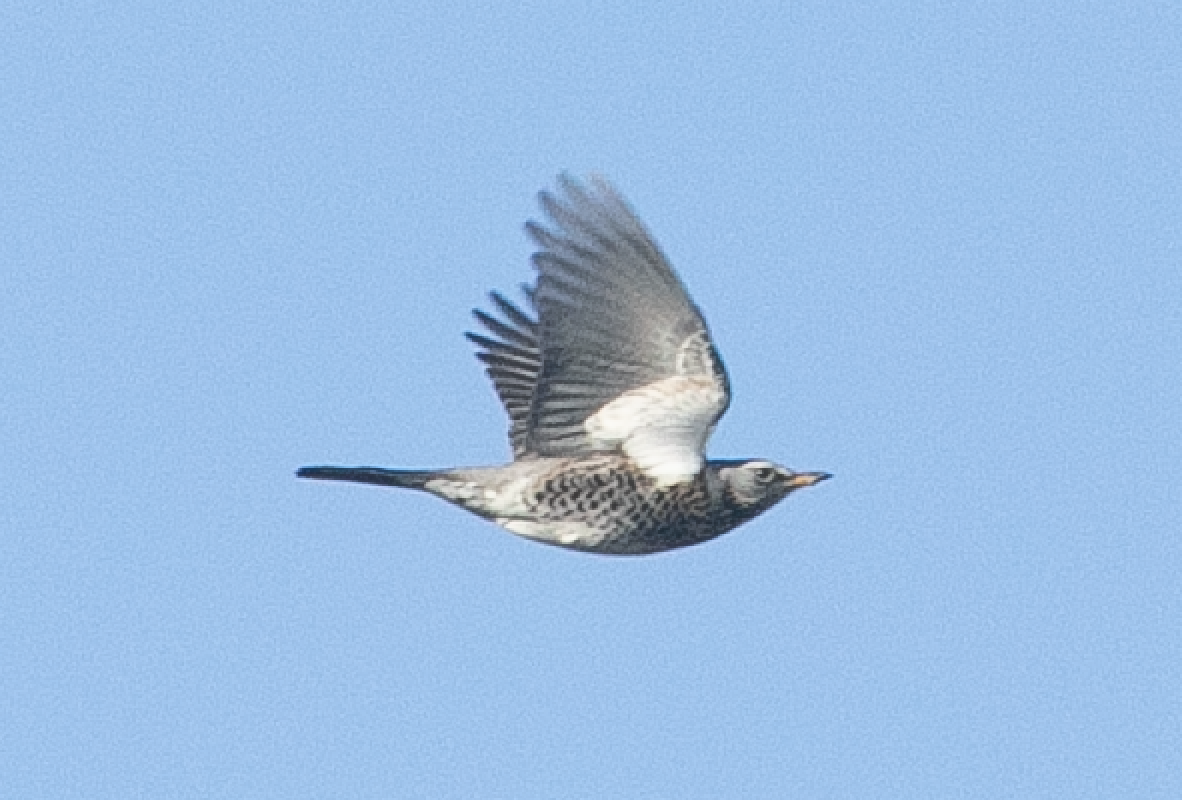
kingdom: Animalia
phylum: Chordata
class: Aves
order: Passeriformes
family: Turdidae
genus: Turdus
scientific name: Turdus pilaris
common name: Fieldfare
